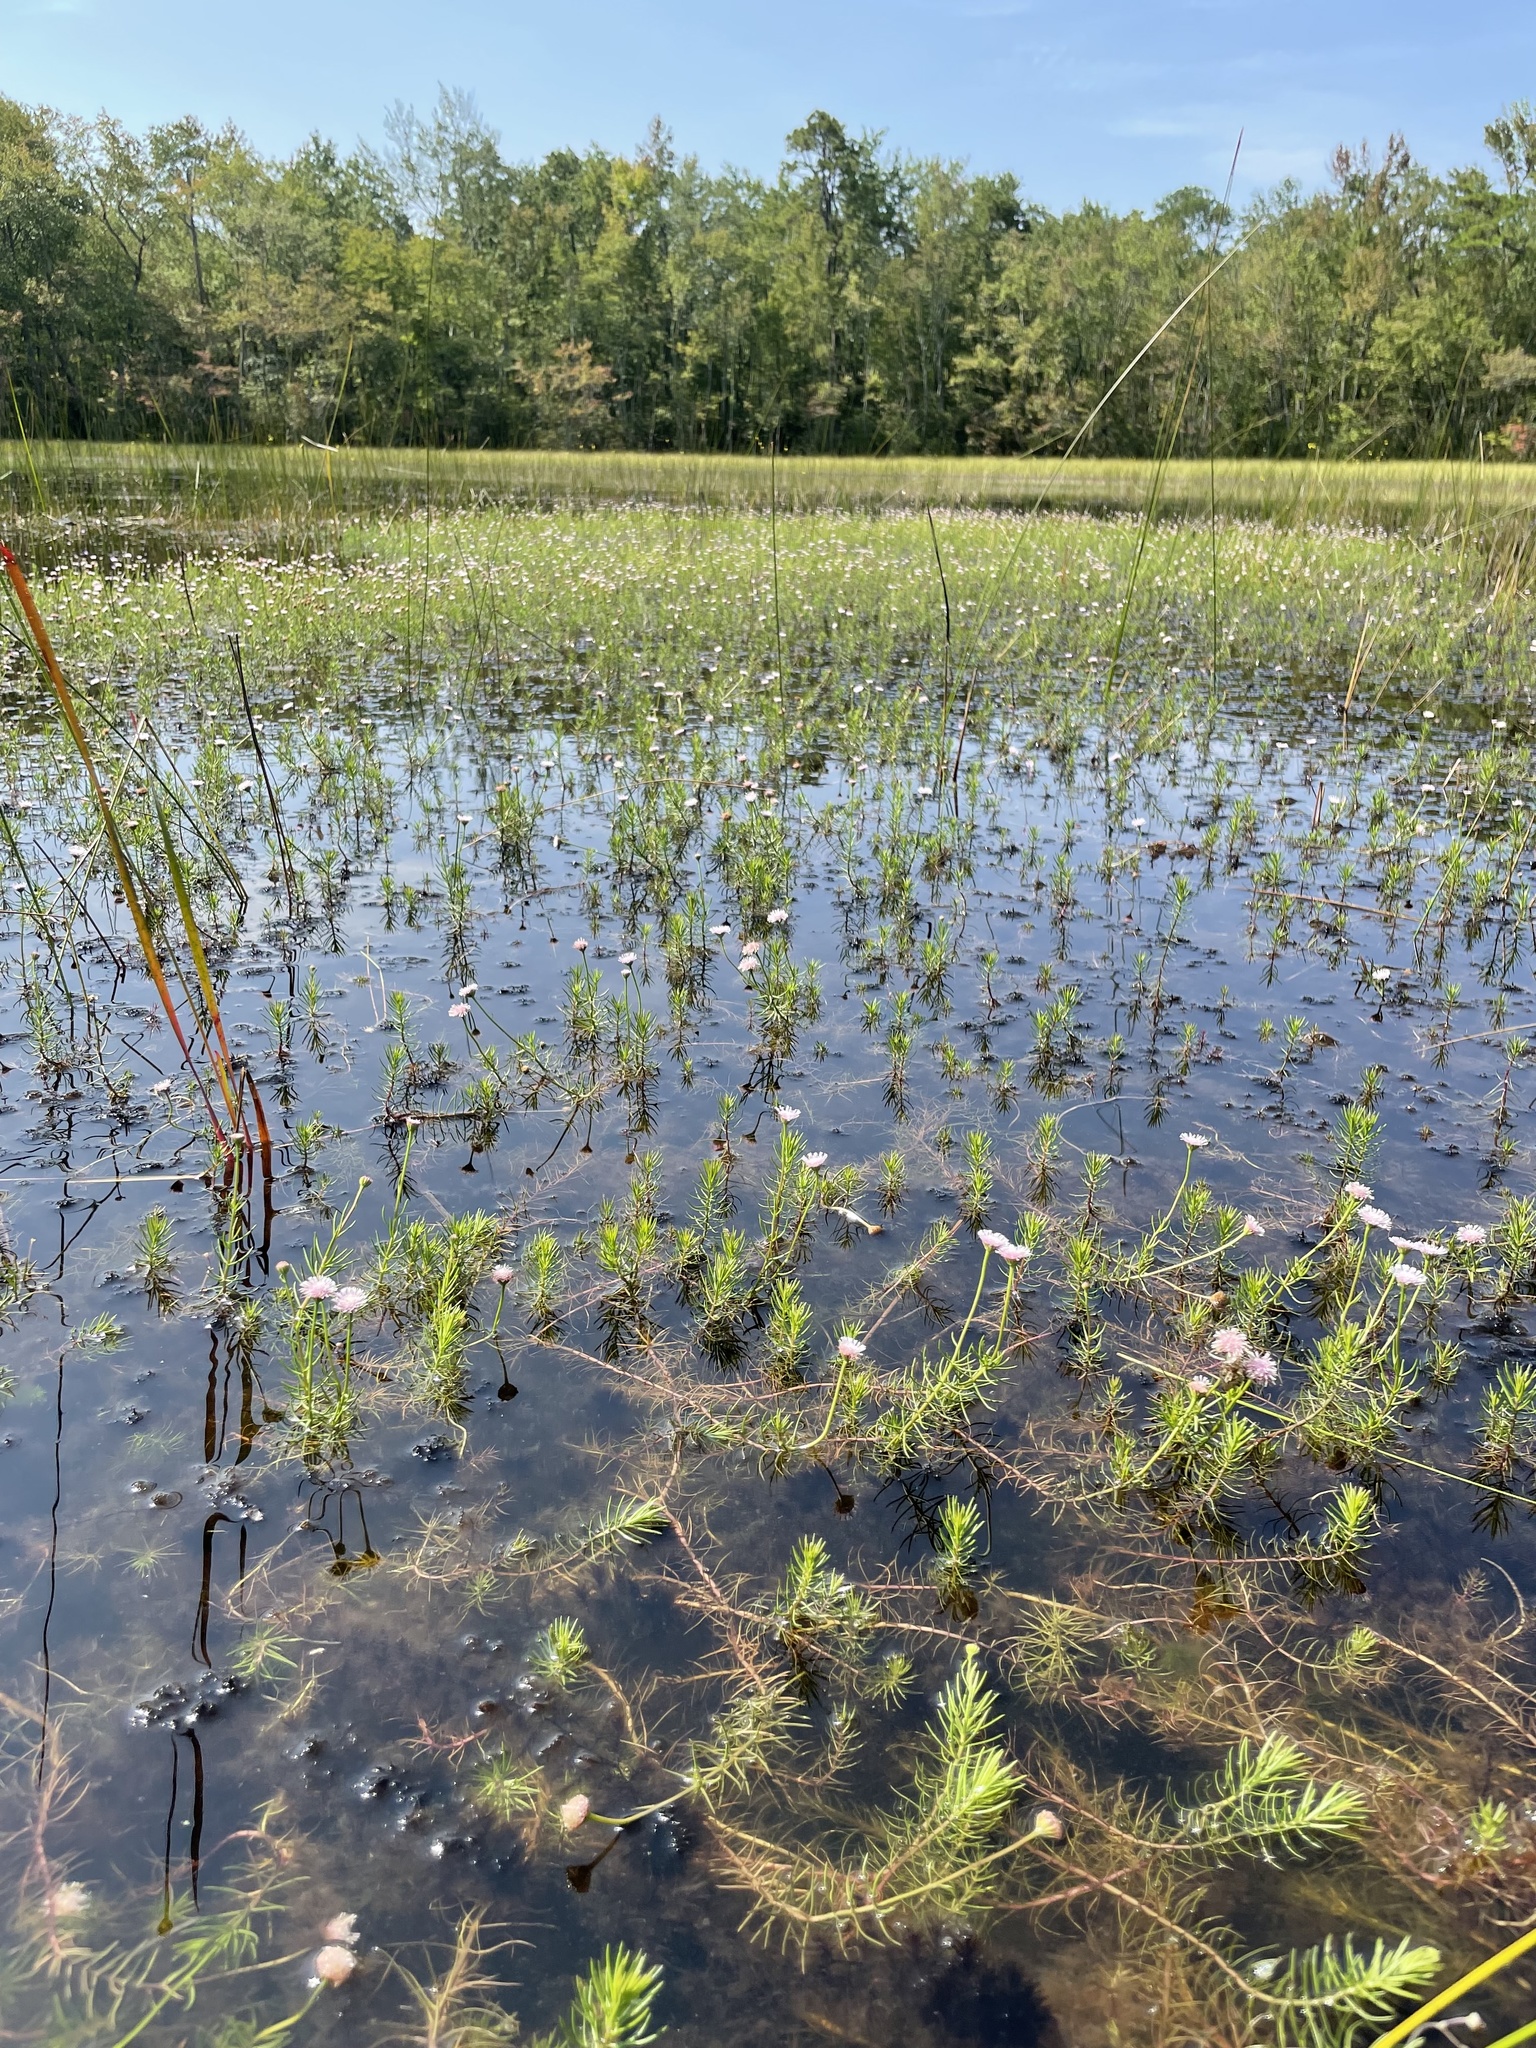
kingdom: Plantae
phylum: Tracheophyta
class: Magnoliopsida
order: Asterales
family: Asteraceae
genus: Sclerolepis
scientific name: Sclerolepis uniflora
